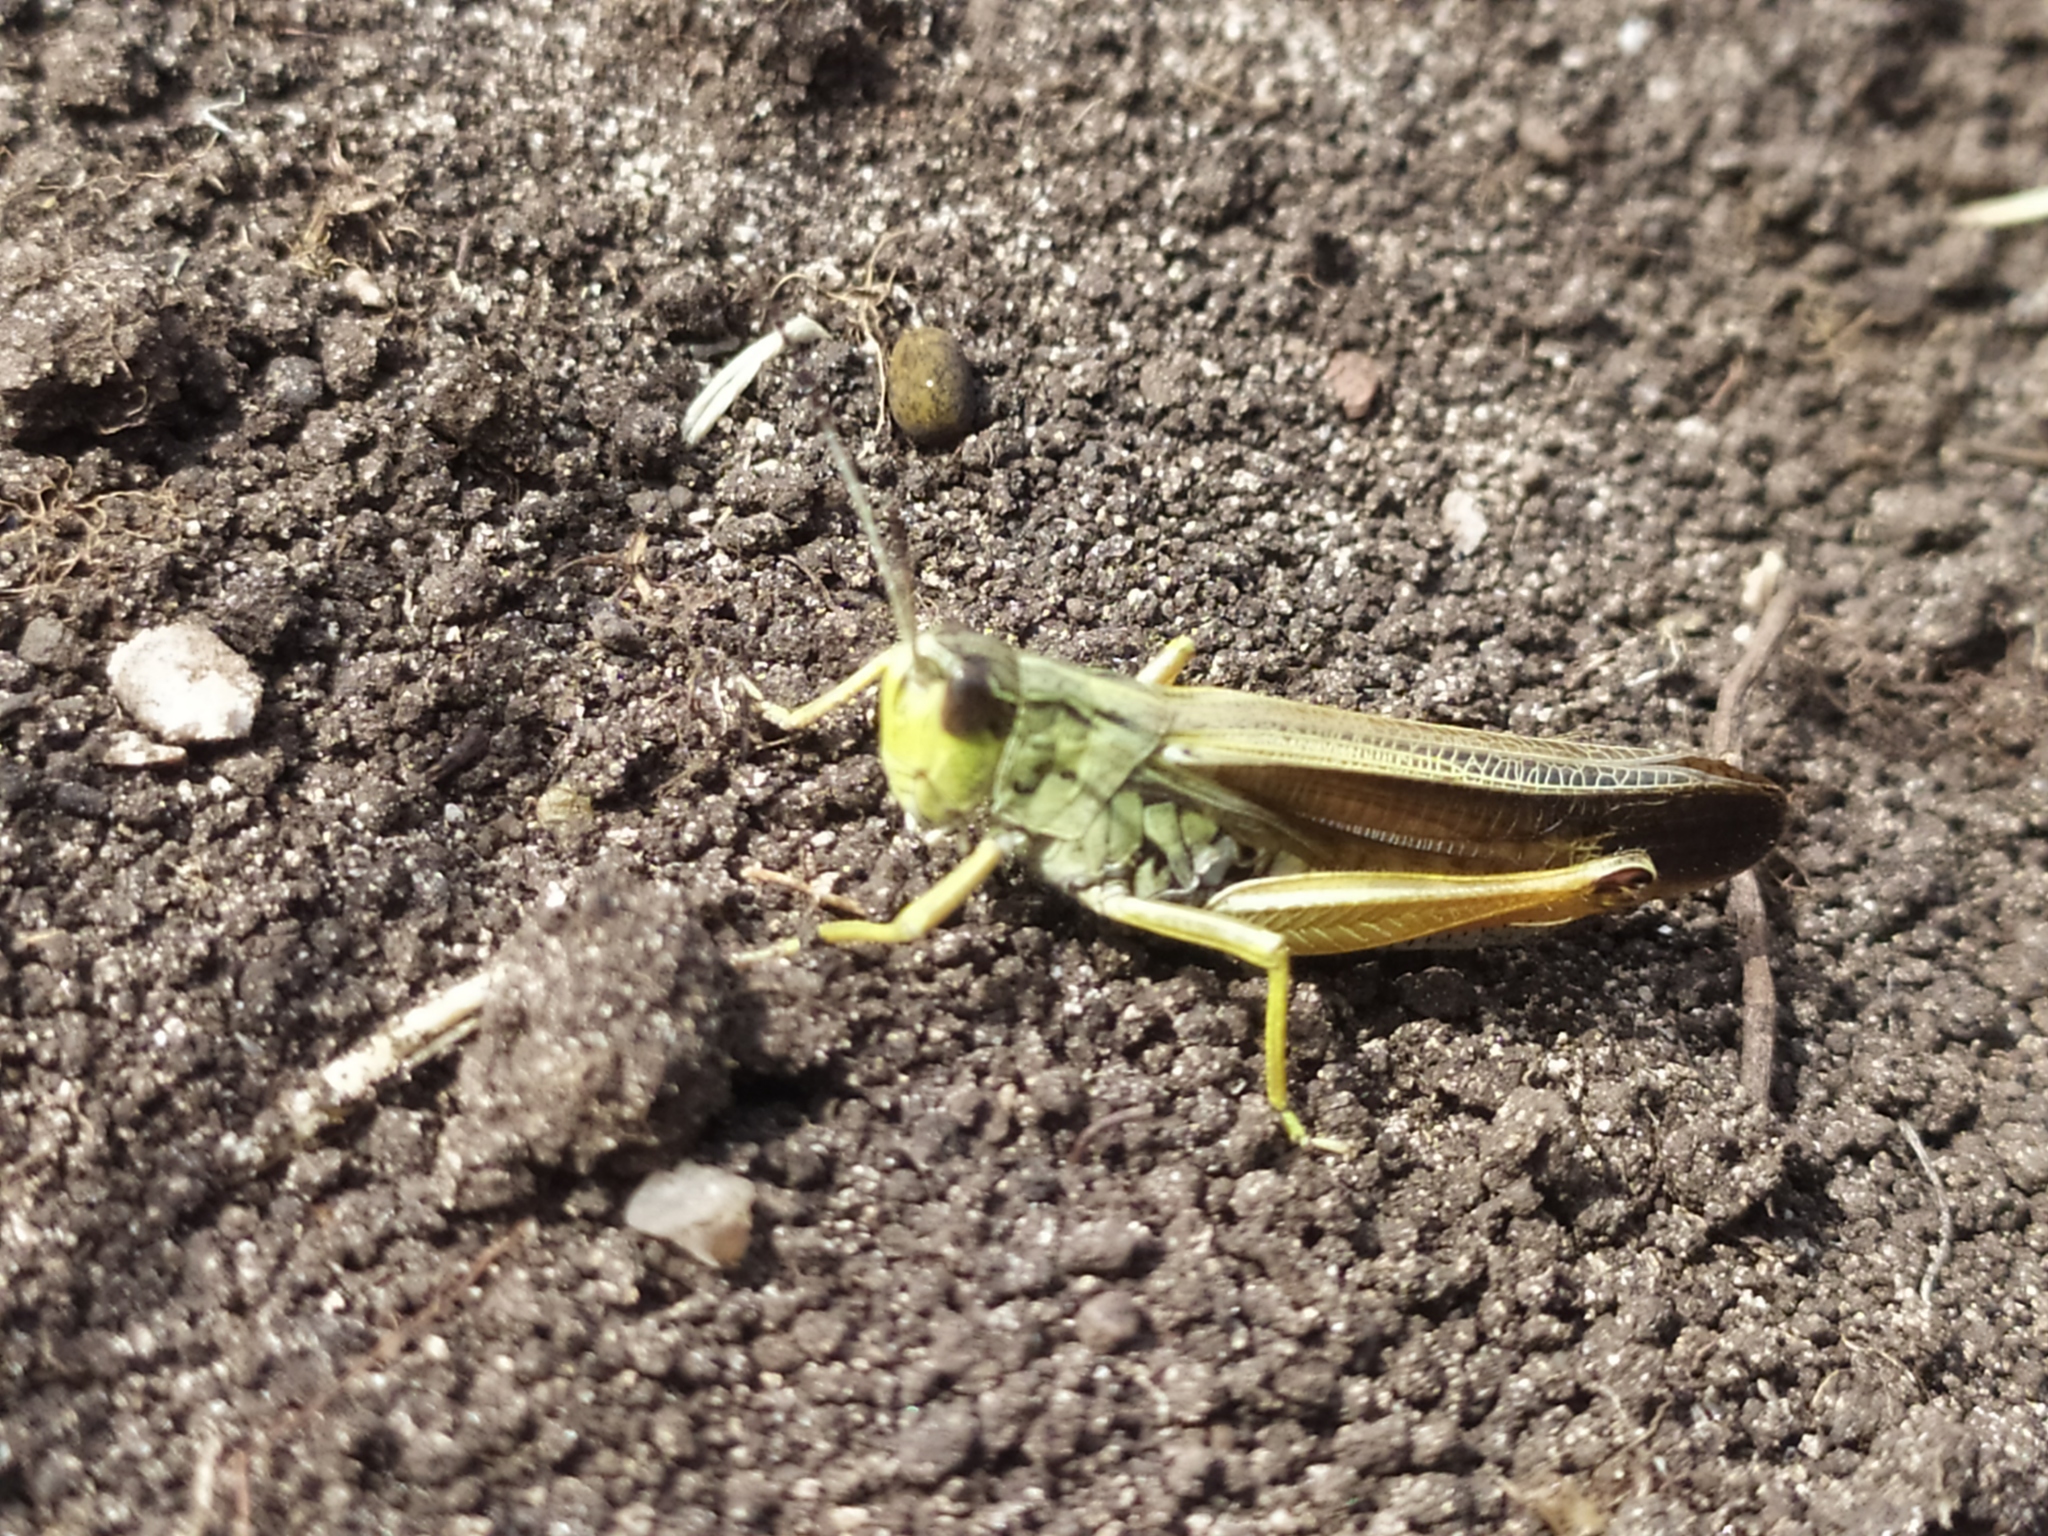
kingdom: Animalia
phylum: Arthropoda
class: Insecta
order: Orthoptera
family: Acrididae
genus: Stauroderus
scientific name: Stauroderus scalaris
